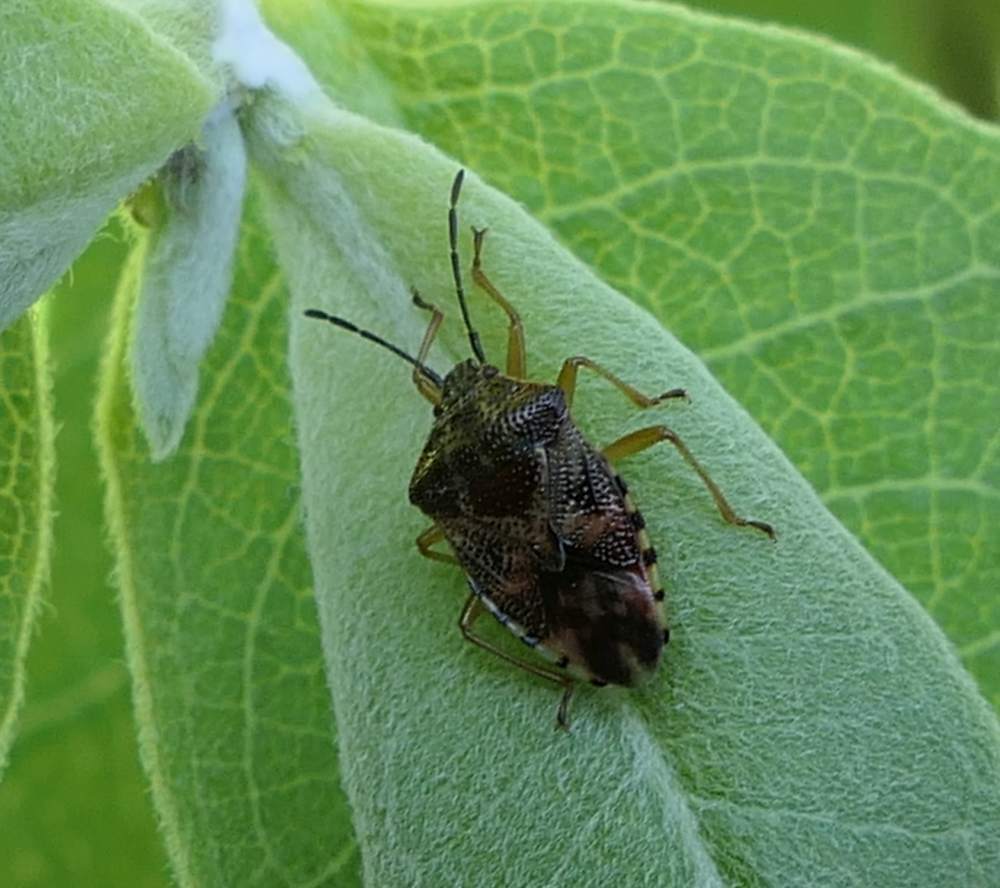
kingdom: Animalia
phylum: Arthropoda
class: Insecta
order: Hemiptera
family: Acanthosomatidae
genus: Elasmucha
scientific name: Elasmucha lateralis
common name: Shield bug
